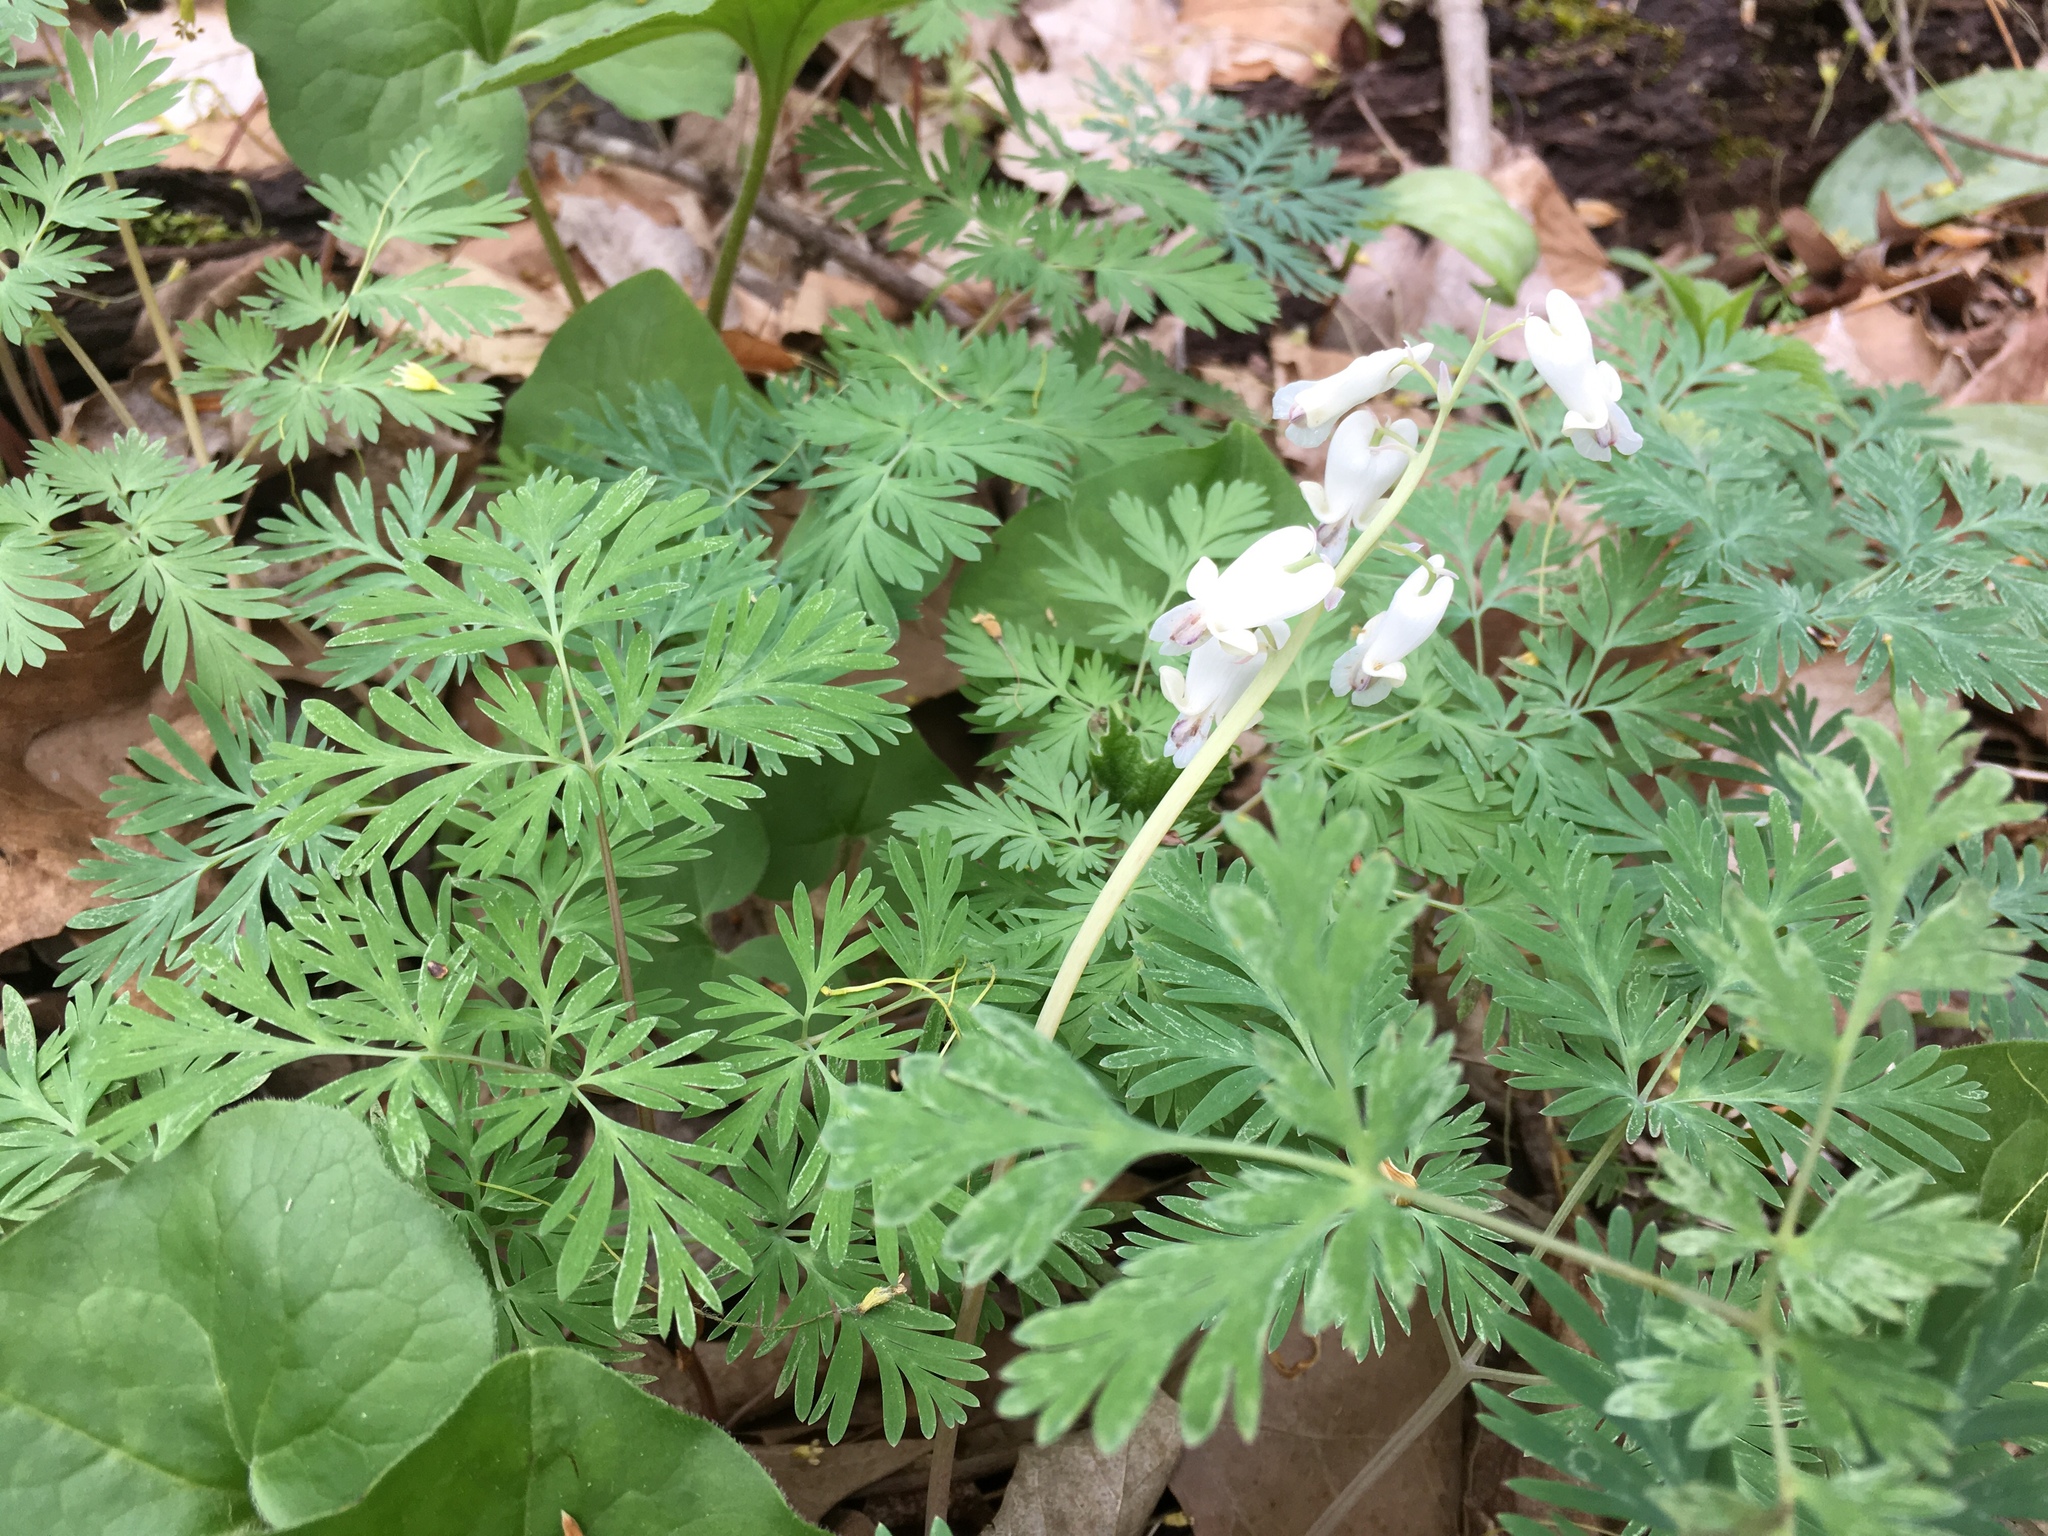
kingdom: Plantae
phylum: Tracheophyta
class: Magnoliopsida
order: Ranunculales
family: Papaveraceae
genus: Dicentra
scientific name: Dicentra canadensis
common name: Squirrel-corn
